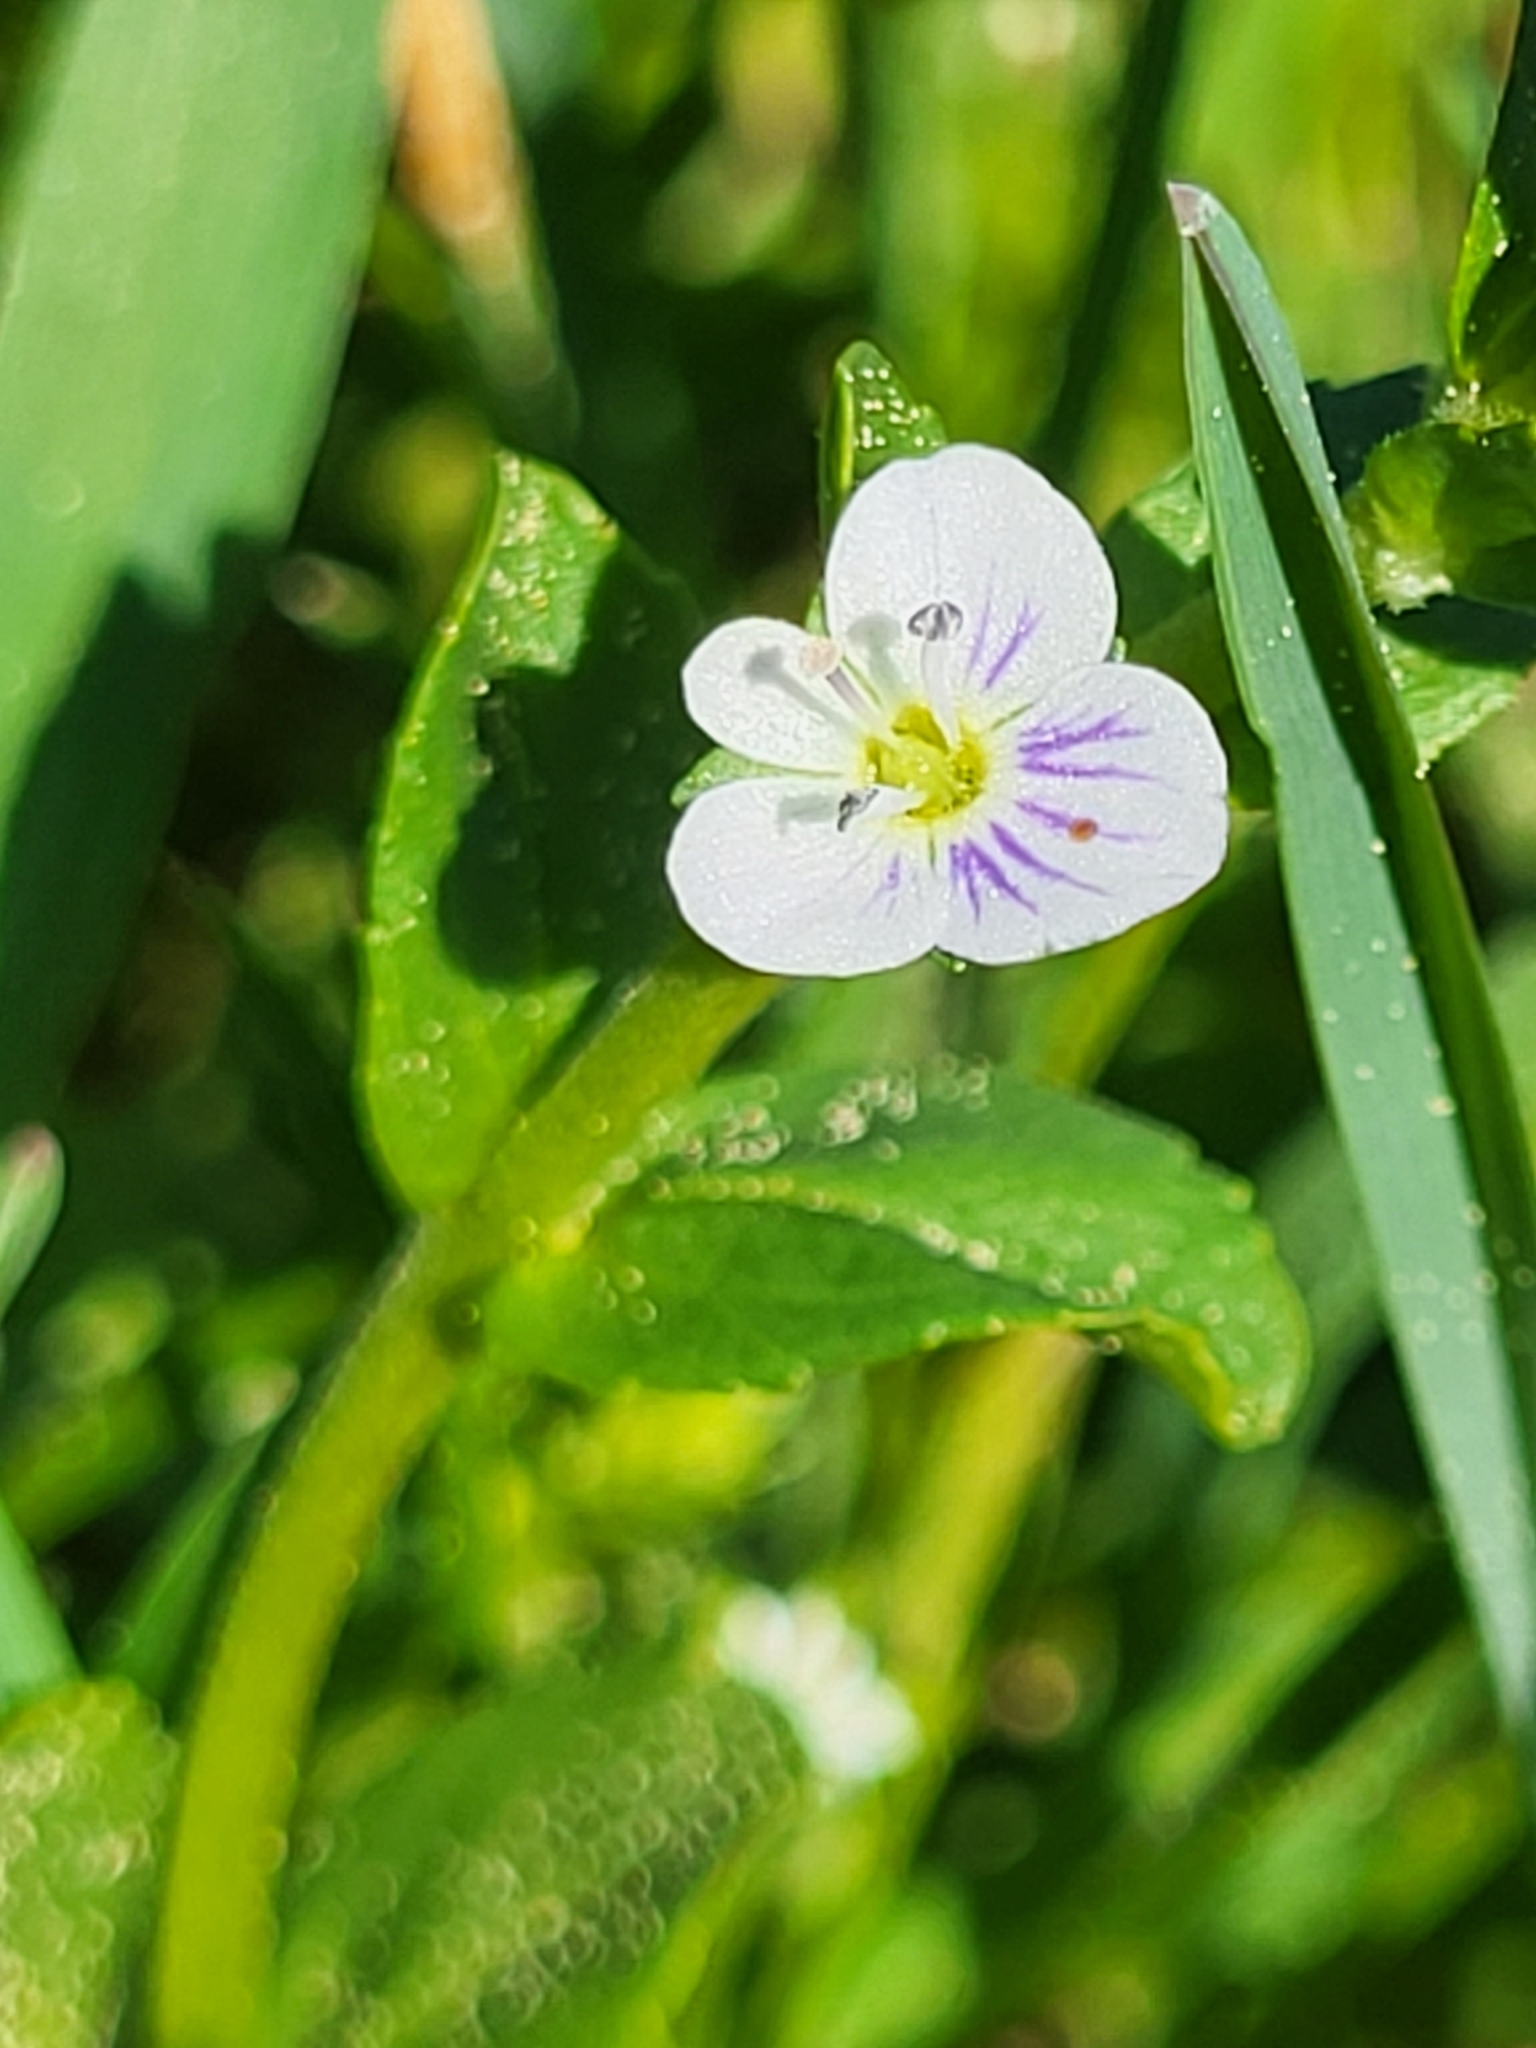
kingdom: Plantae
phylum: Tracheophyta
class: Magnoliopsida
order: Lamiales
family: Plantaginaceae
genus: Veronica
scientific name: Veronica serpyllifolia
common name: Thyme-leaved speedwell
